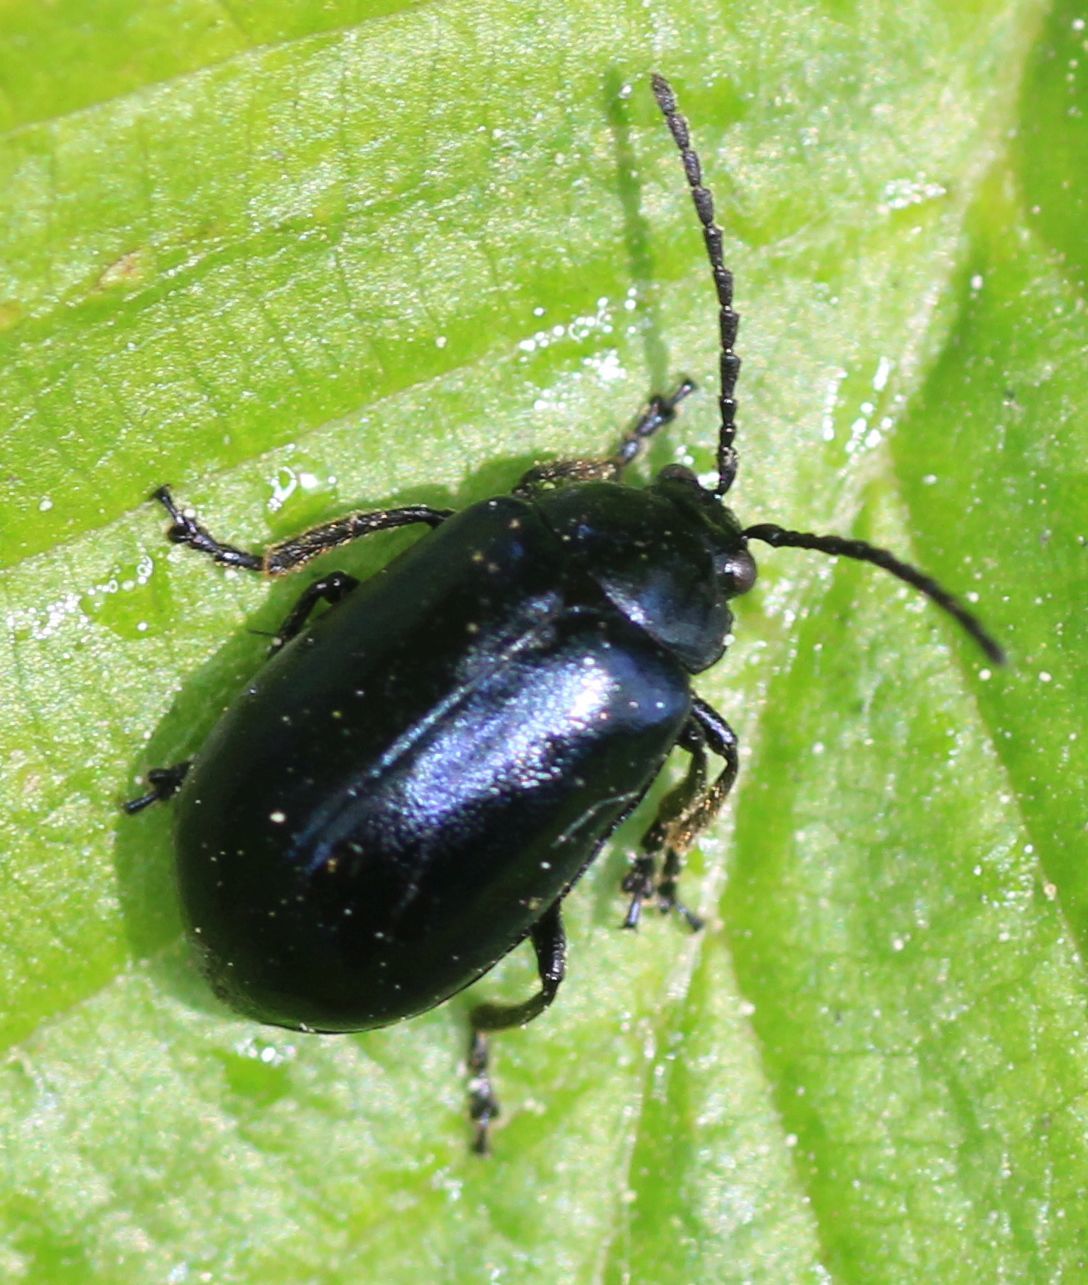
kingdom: Animalia
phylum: Arthropoda
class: Insecta
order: Coleoptera
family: Chrysomelidae
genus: Agelastica
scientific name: Agelastica alni
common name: Alder leaf beetle
